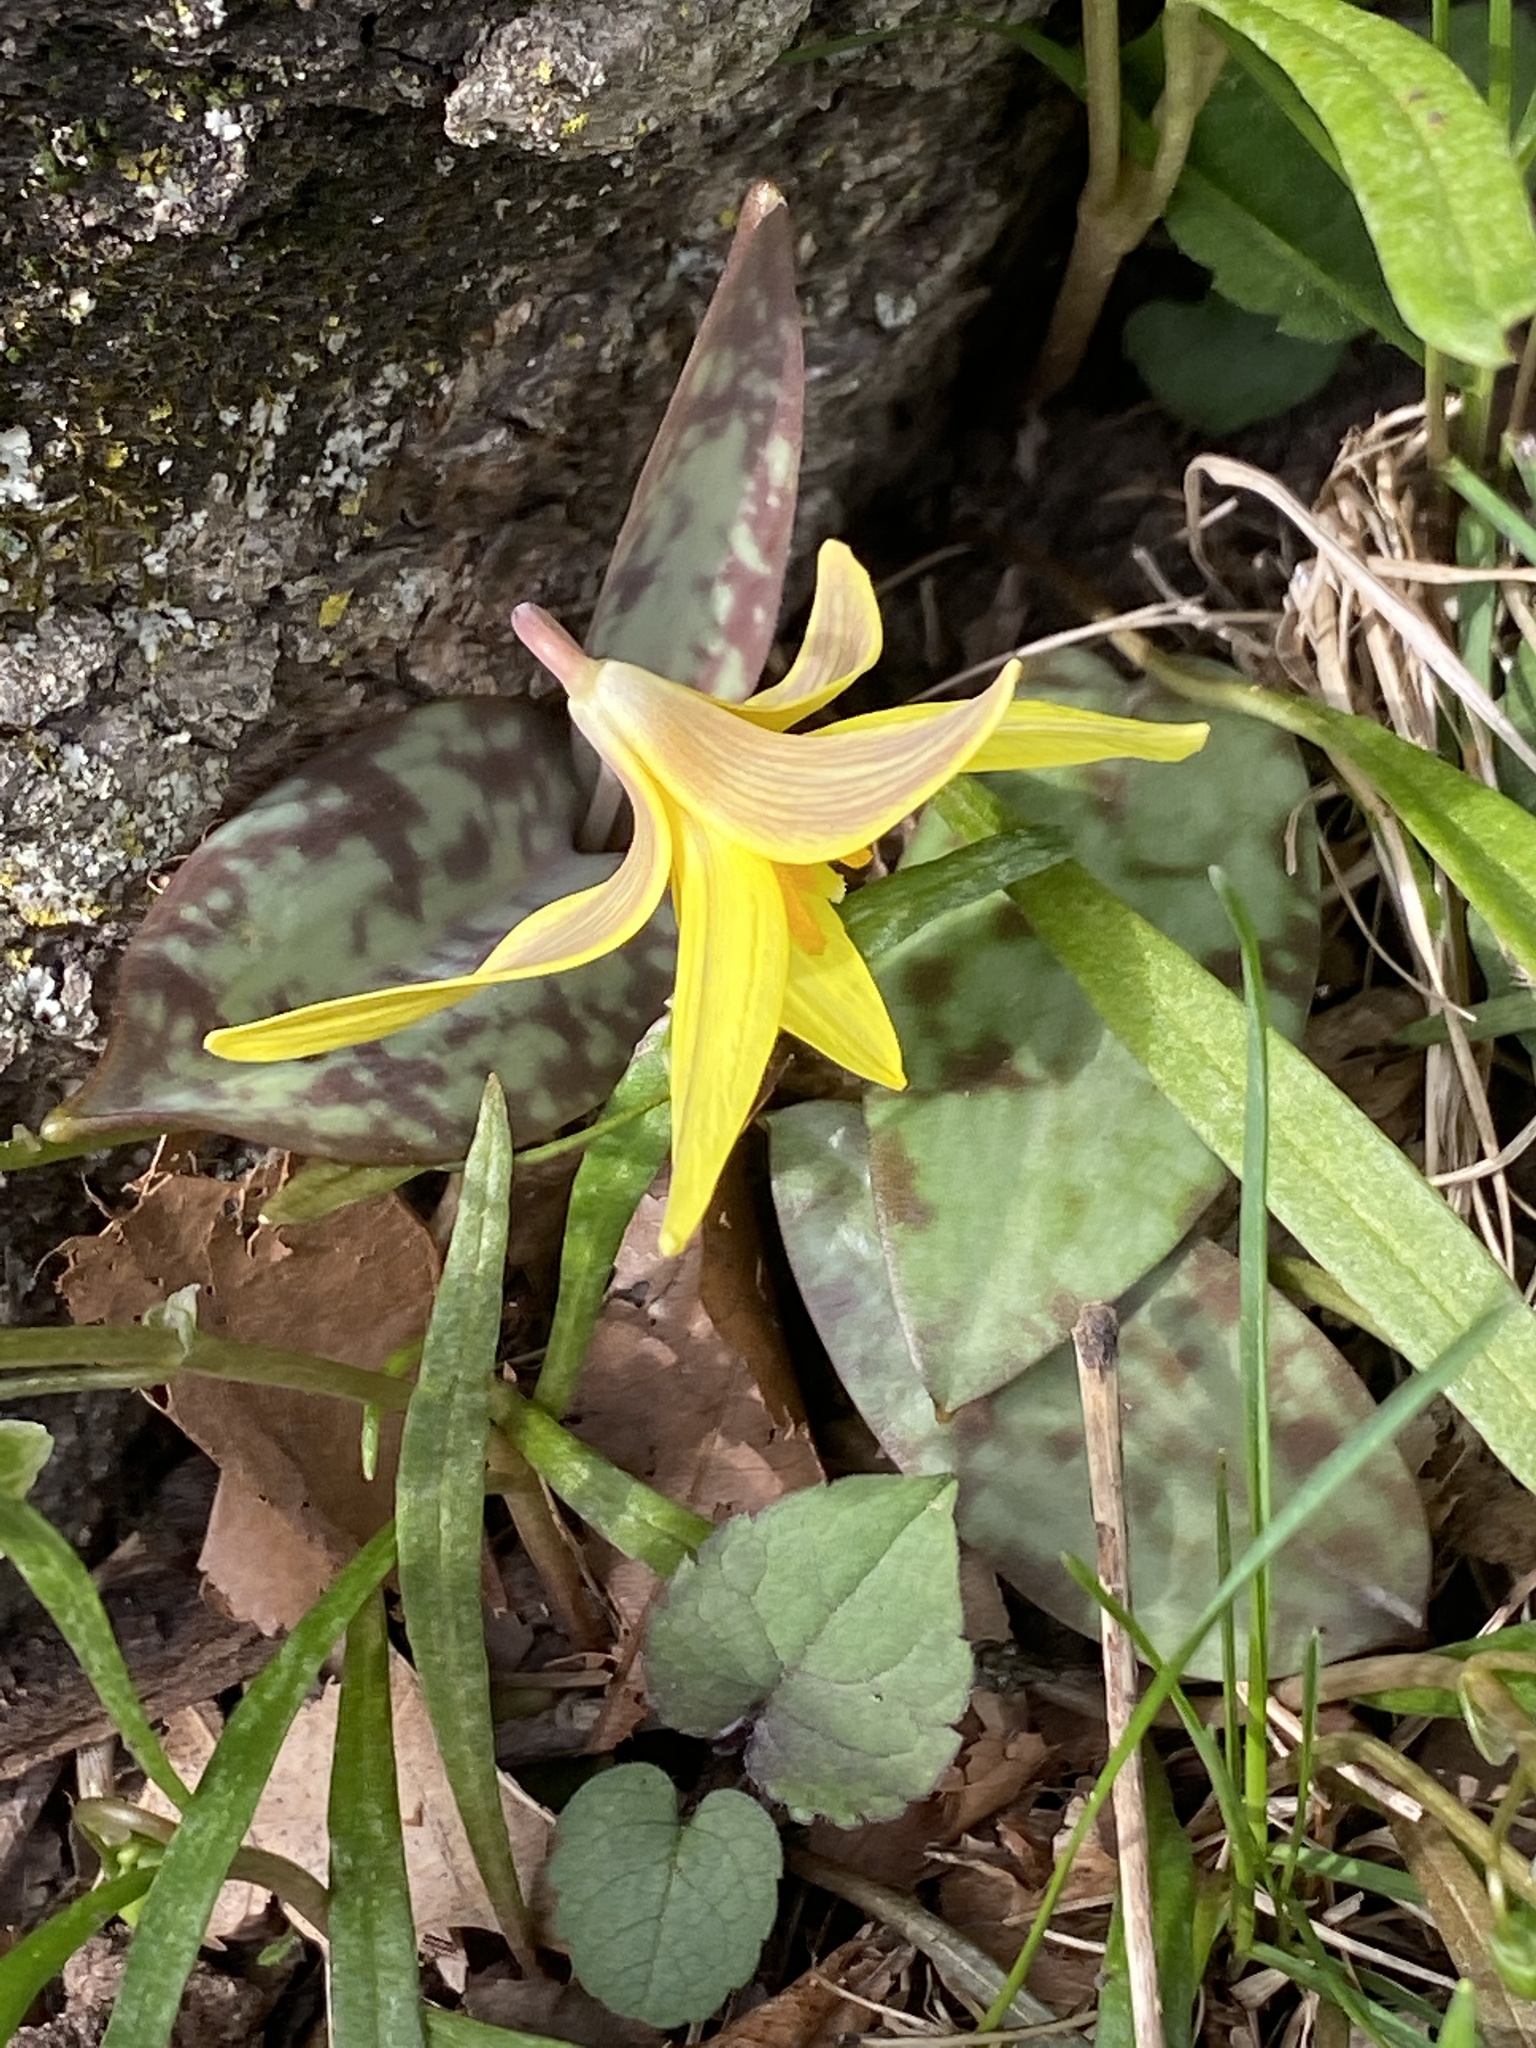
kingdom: Plantae
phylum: Tracheophyta
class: Liliopsida
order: Liliales
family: Liliaceae
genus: Erythronium
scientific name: Erythronium americanum
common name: Yellow adder's-tongue
